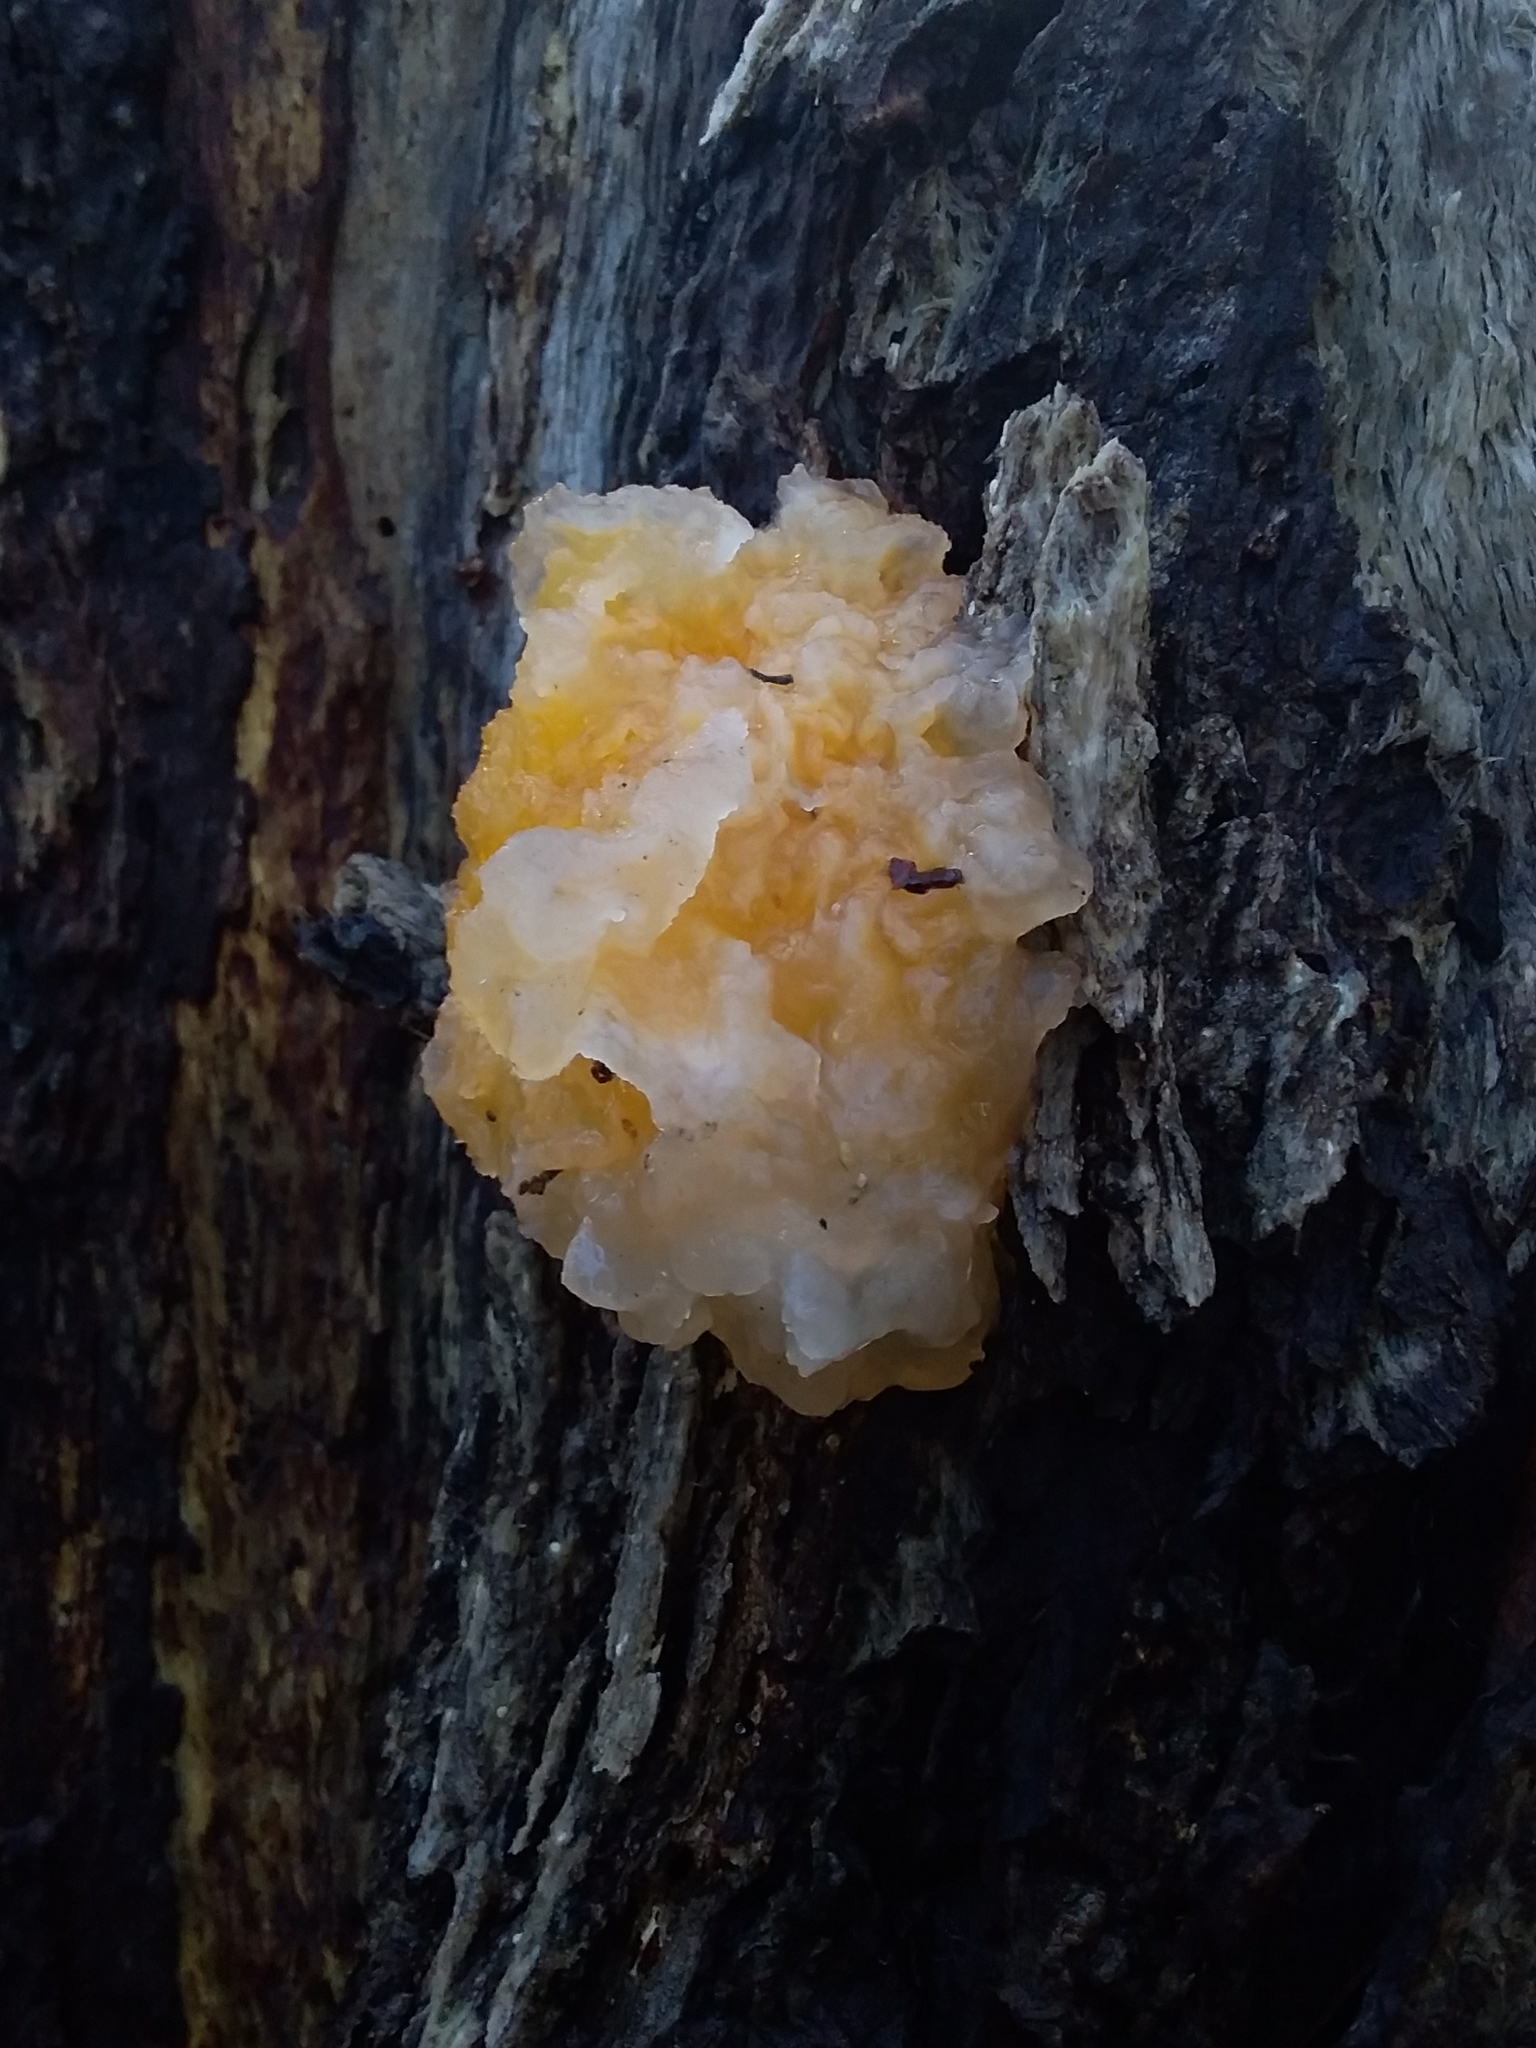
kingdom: Fungi
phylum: Basidiomycota
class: Tremellomycetes
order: Tremellales
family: Tremellaceae
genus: Tremella
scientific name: Tremella mesenterica
